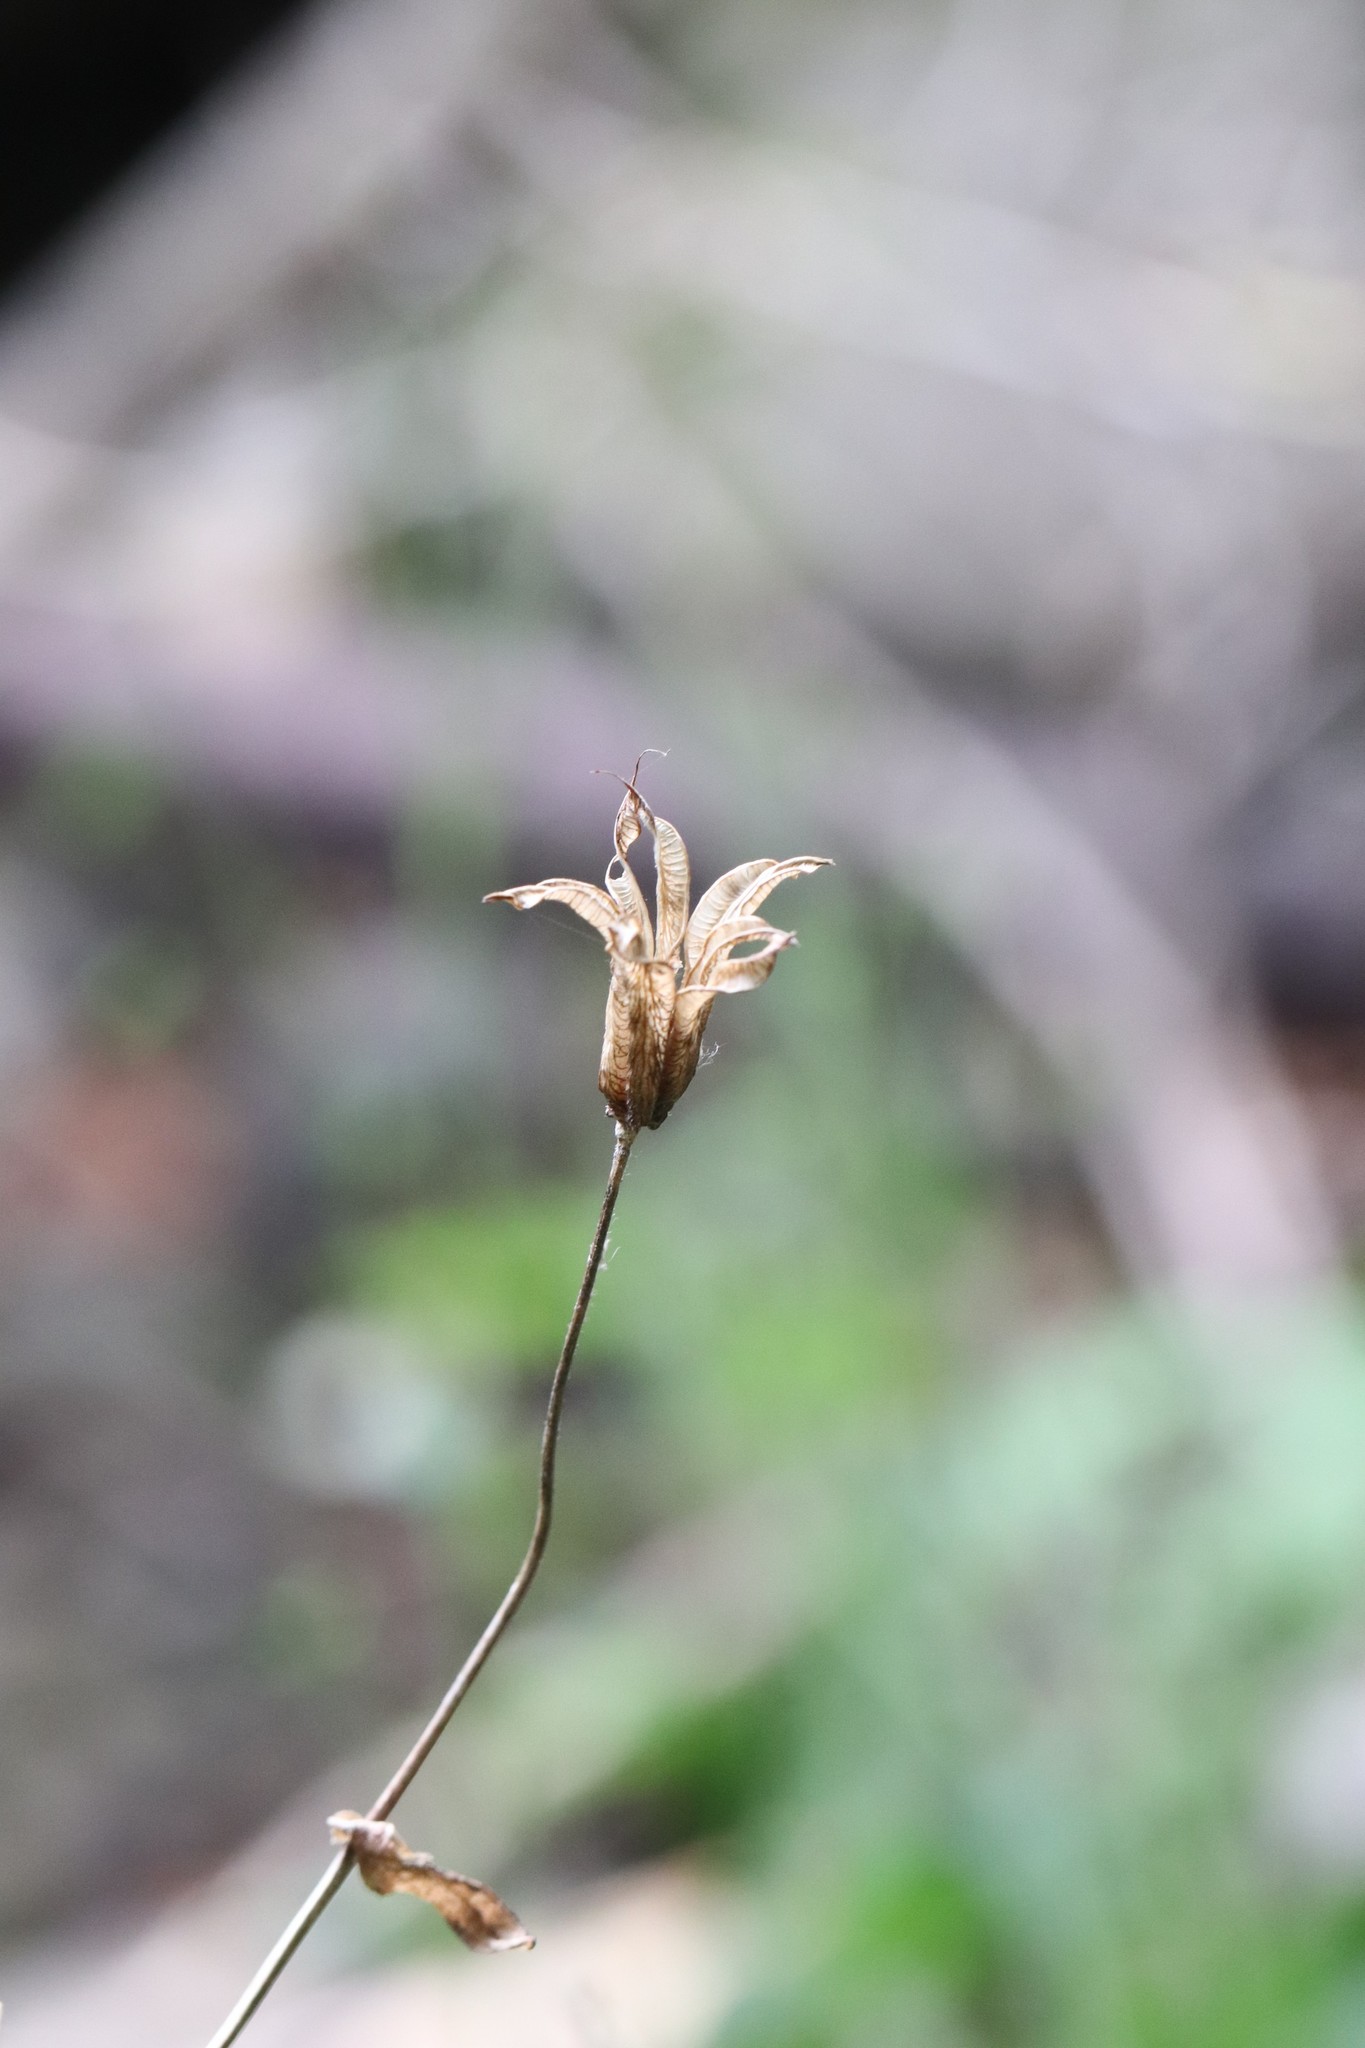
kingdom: Plantae
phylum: Tracheophyta
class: Magnoliopsida
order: Ranunculales
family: Ranunculaceae
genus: Aquilegia
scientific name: Aquilegia oxysepala
